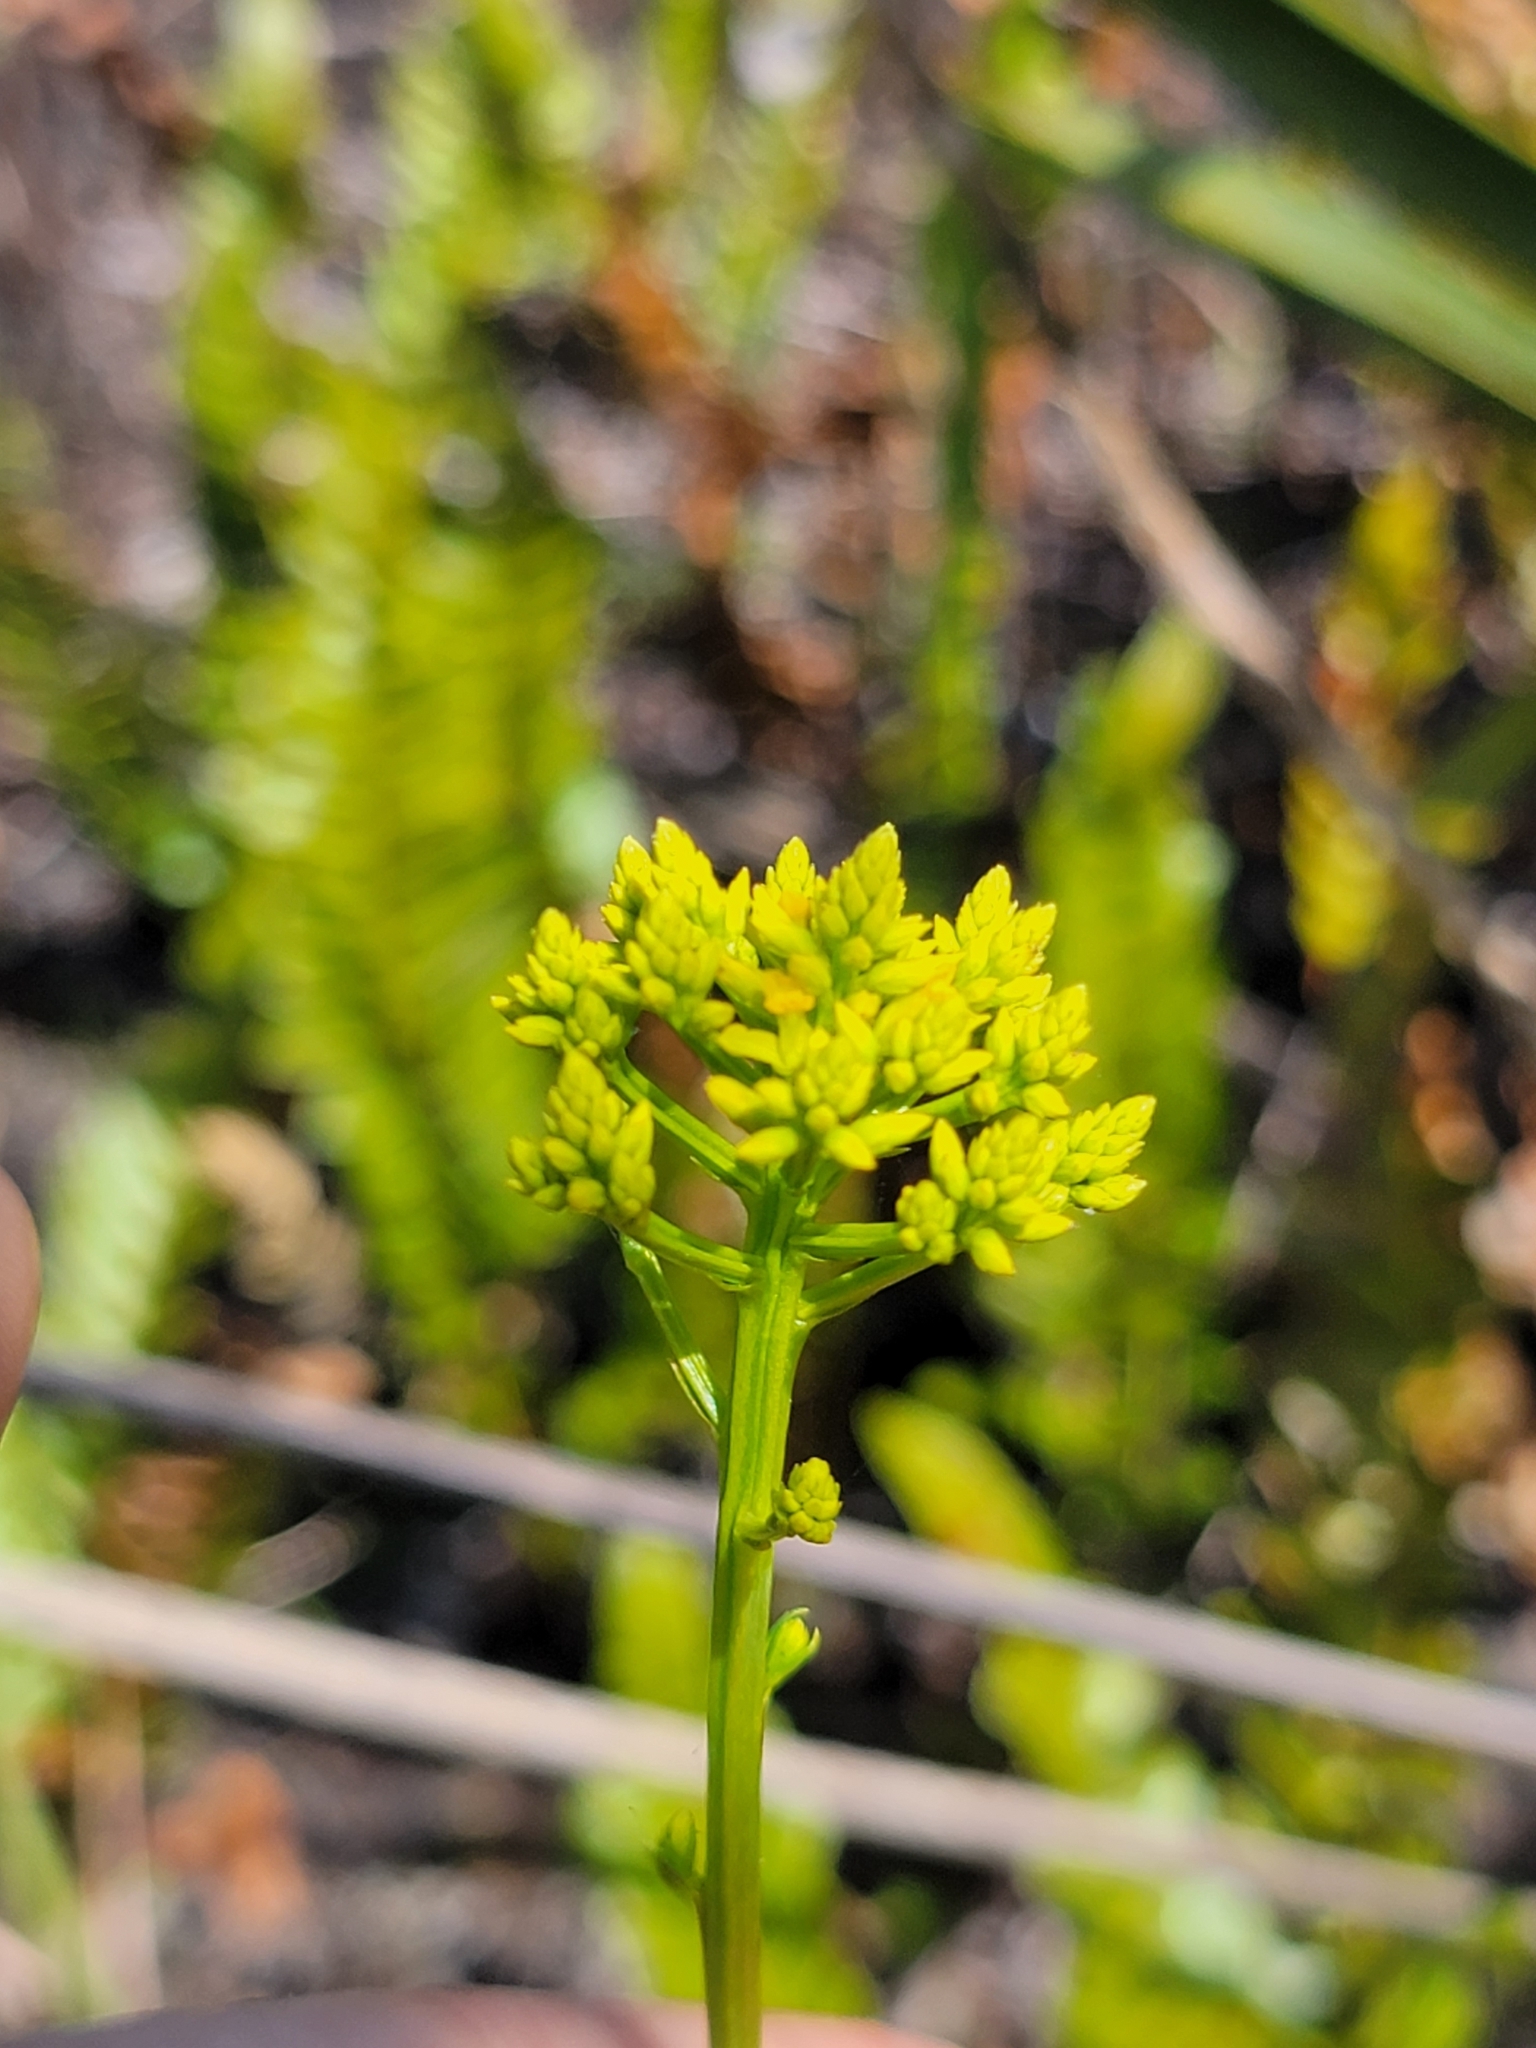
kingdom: Plantae
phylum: Tracheophyta
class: Magnoliopsida
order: Fabales
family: Polygalaceae
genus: Polygala
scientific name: Polygala cymosa
